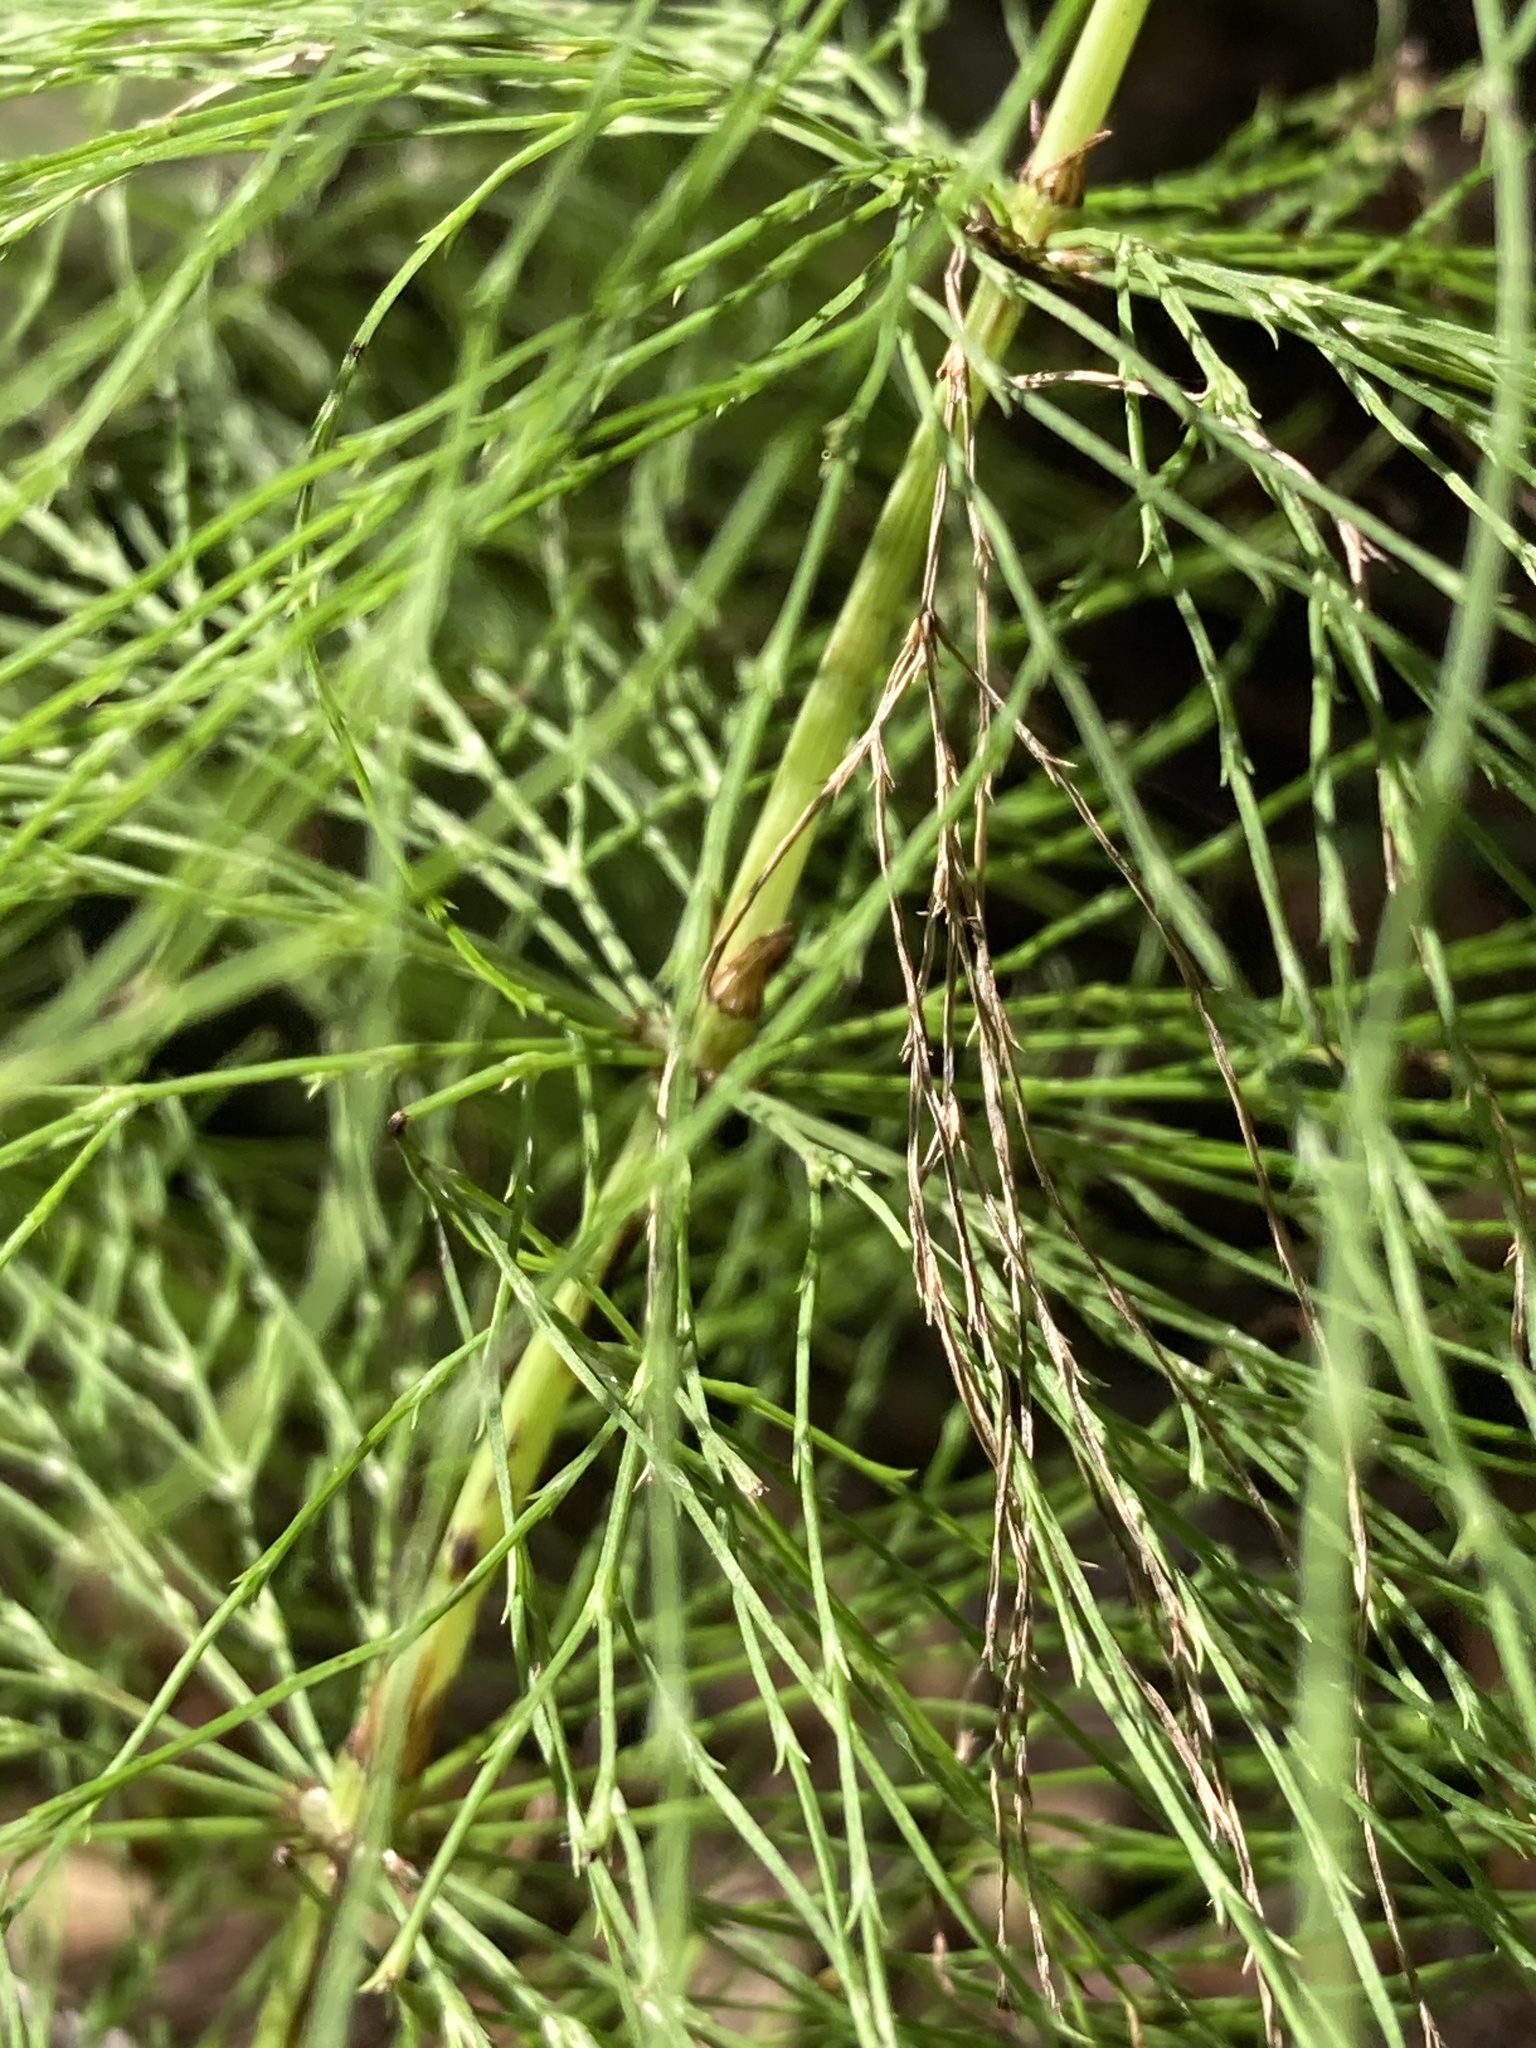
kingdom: Plantae
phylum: Tracheophyta
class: Polypodiopsida
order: Equisetales
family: Equisetaceae
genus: Equisetum
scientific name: Equisetum sylvaticum
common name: Wood horsetail
